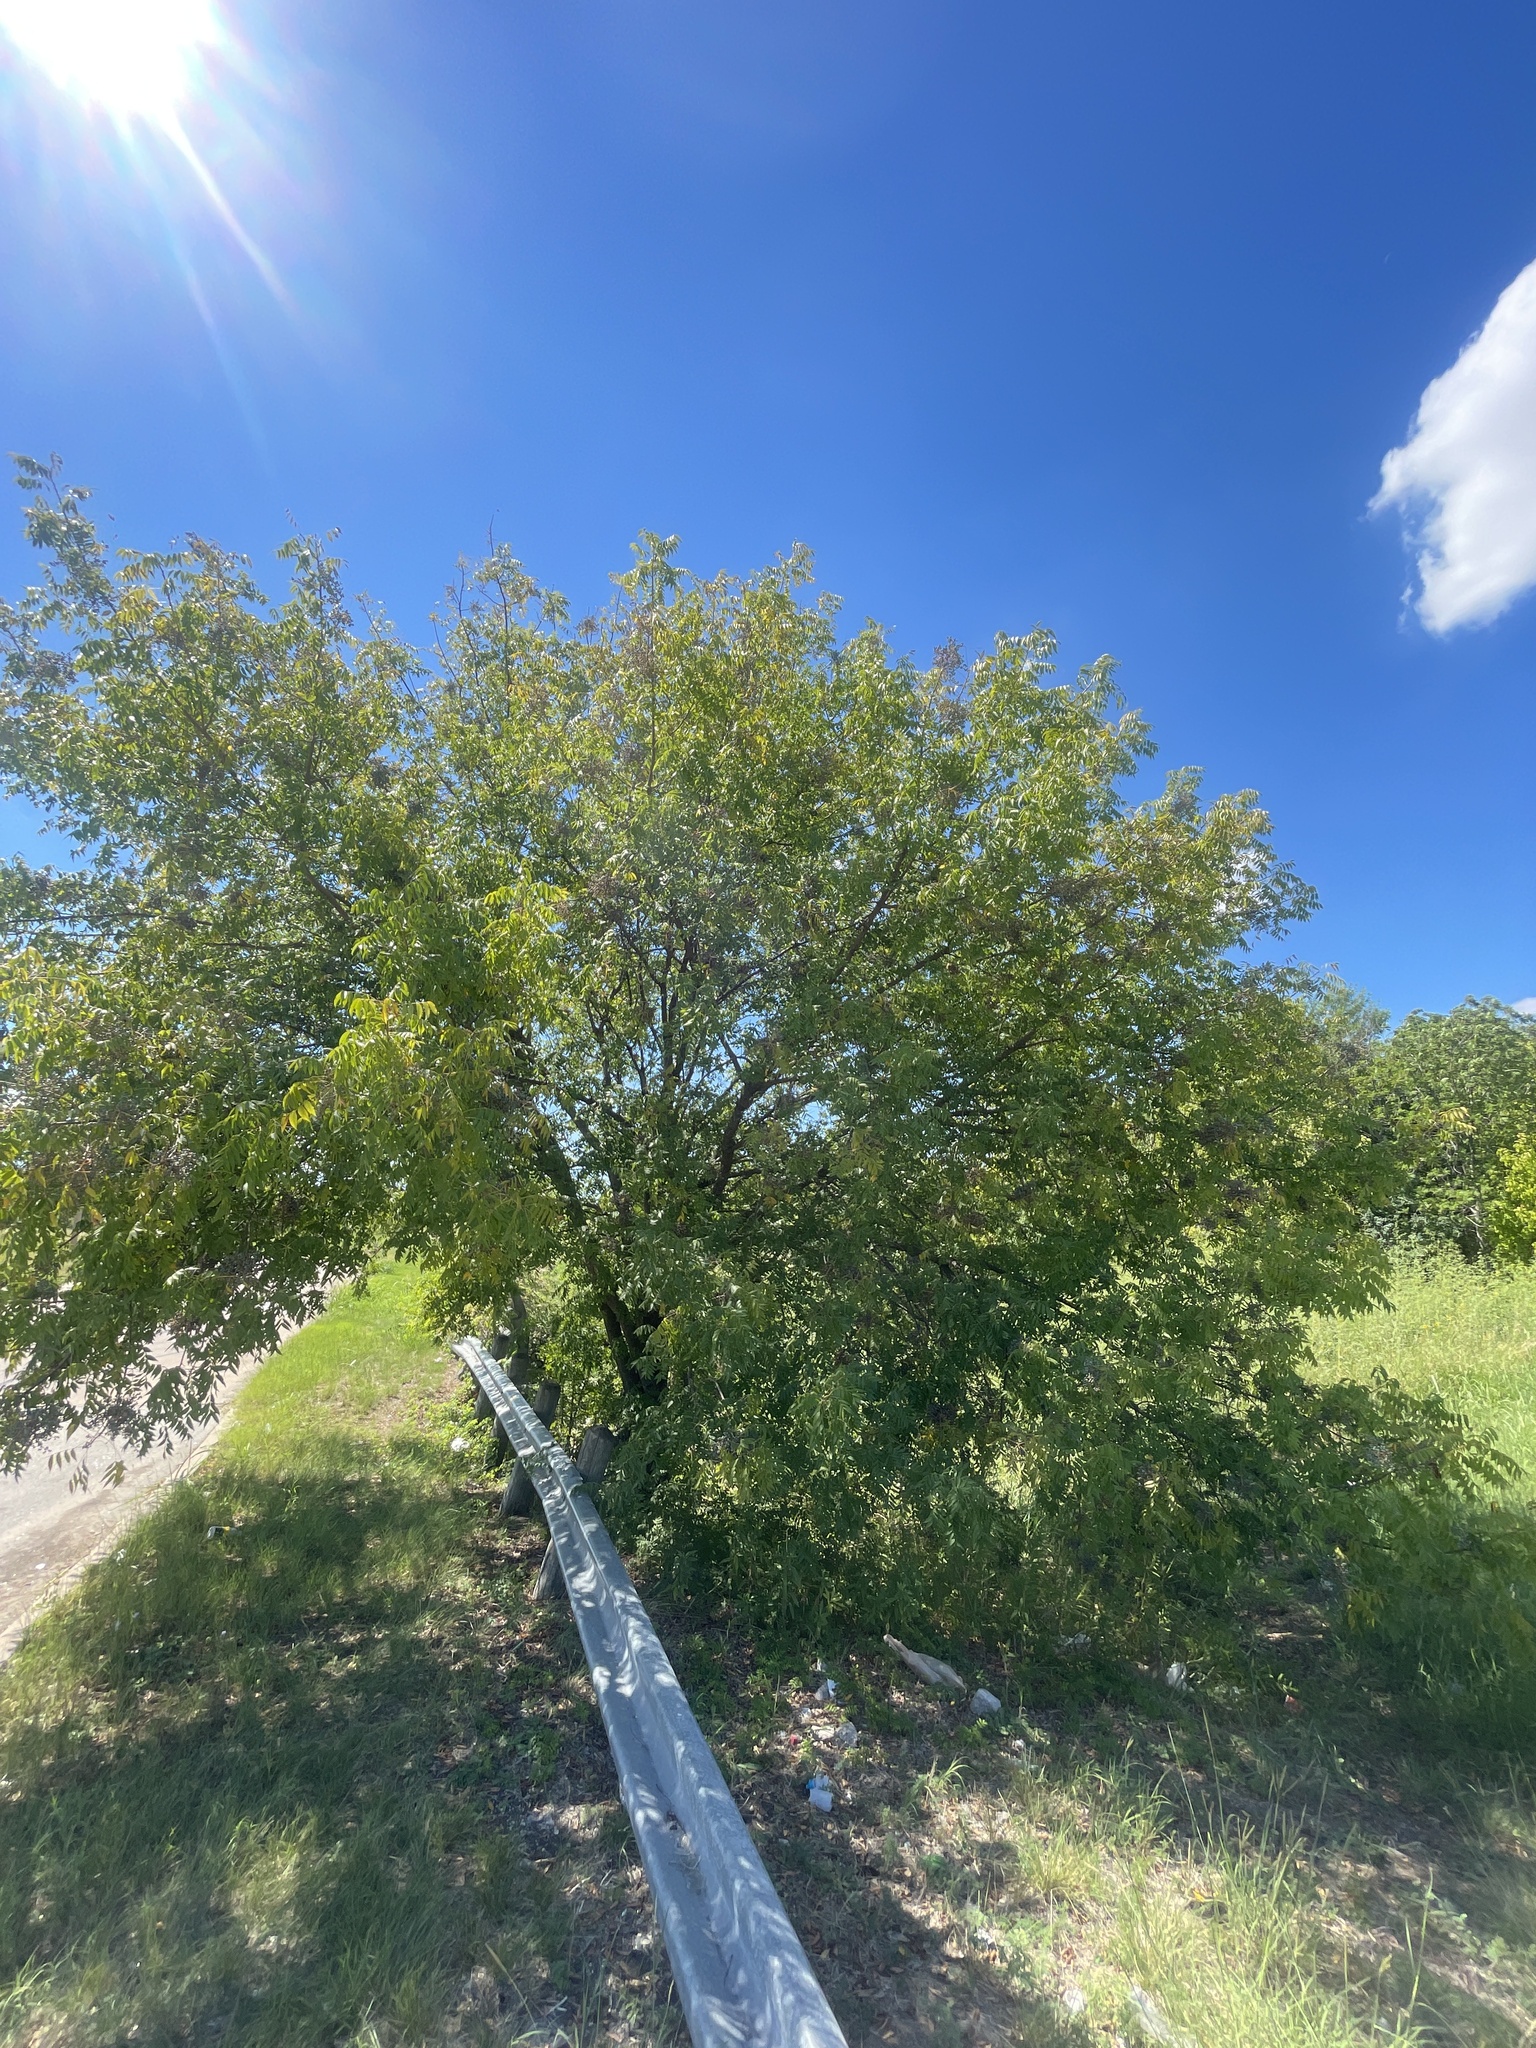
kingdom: Plantae
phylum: Tracheophyta
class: Magnoliopsida
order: Sapindales
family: Anacardiaceae
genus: Pistacia
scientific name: Pistacia chinensis
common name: Chinese pistache
